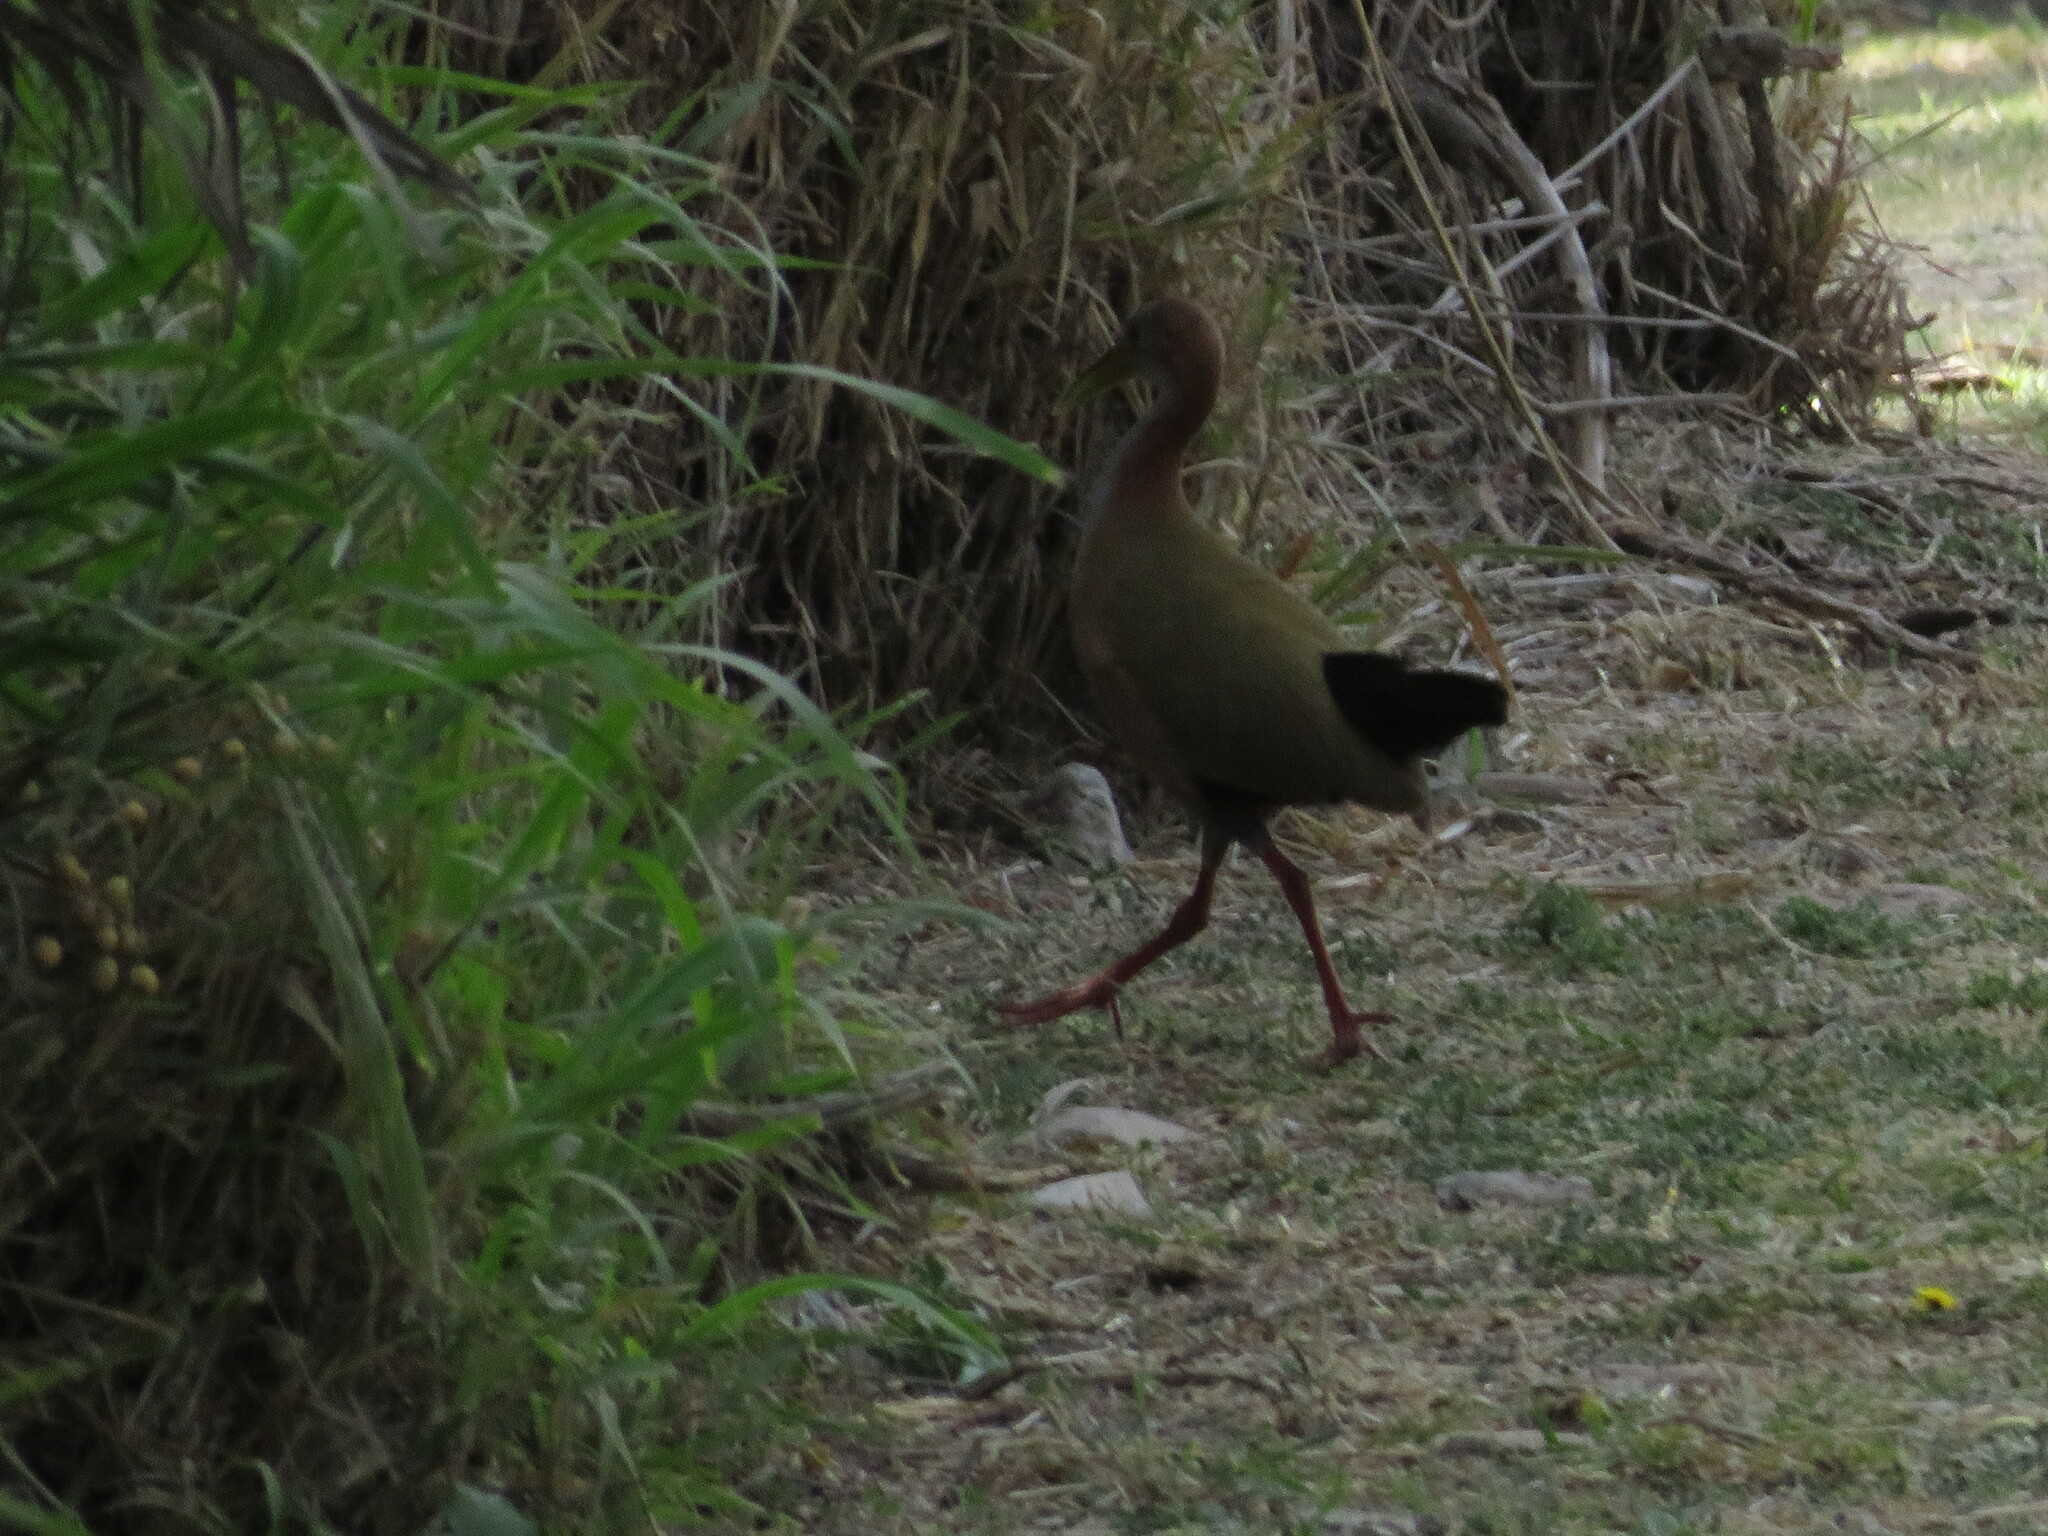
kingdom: Animalia
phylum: Chordata
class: Aves
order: Gruiformes
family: Rallidae
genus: Aramides
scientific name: Aramides ypecaha
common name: Giant wood rail
